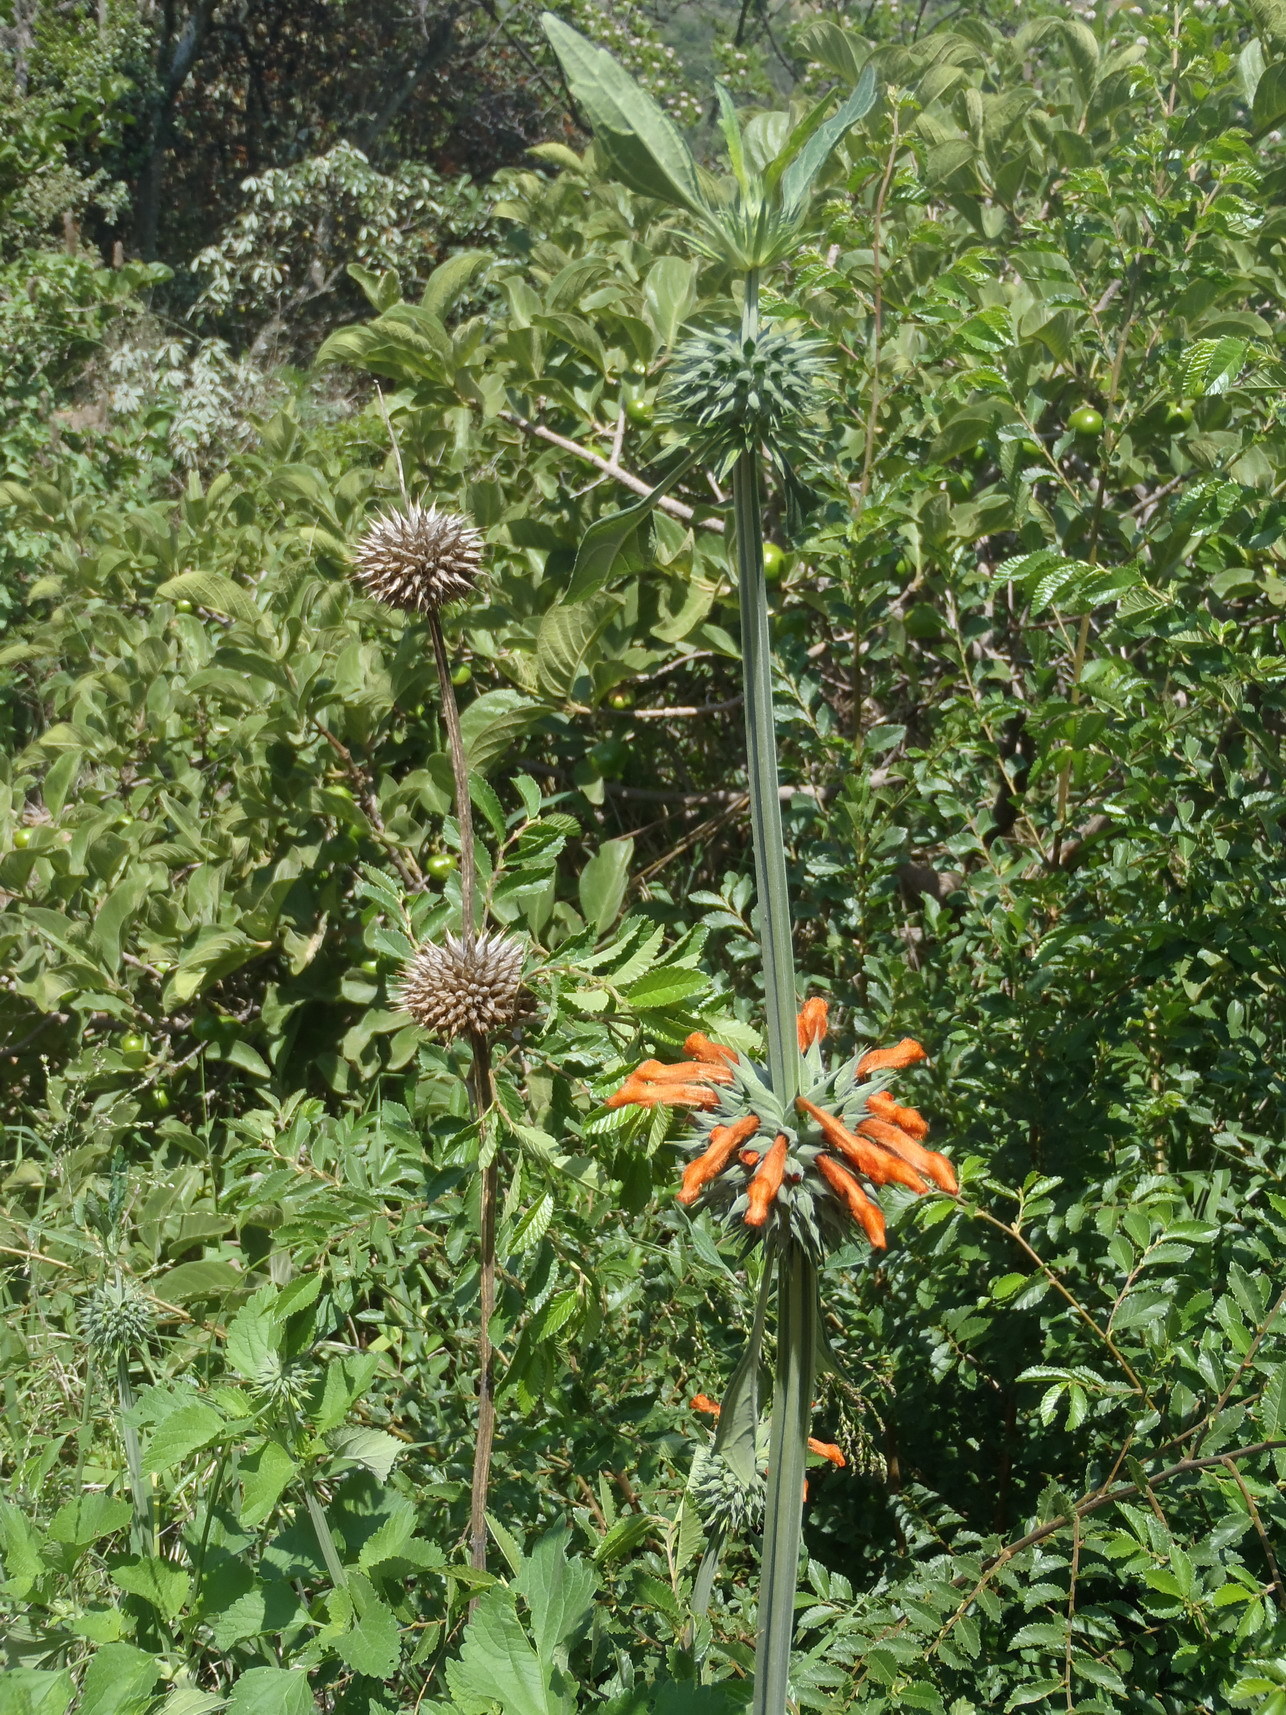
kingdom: Plantae
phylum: Tracheophyta
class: Magnoliopsida
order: Lamiales
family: Lamiaceae
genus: Leonotis
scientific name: Leonotis nepetifolia
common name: Christmas candlestick
